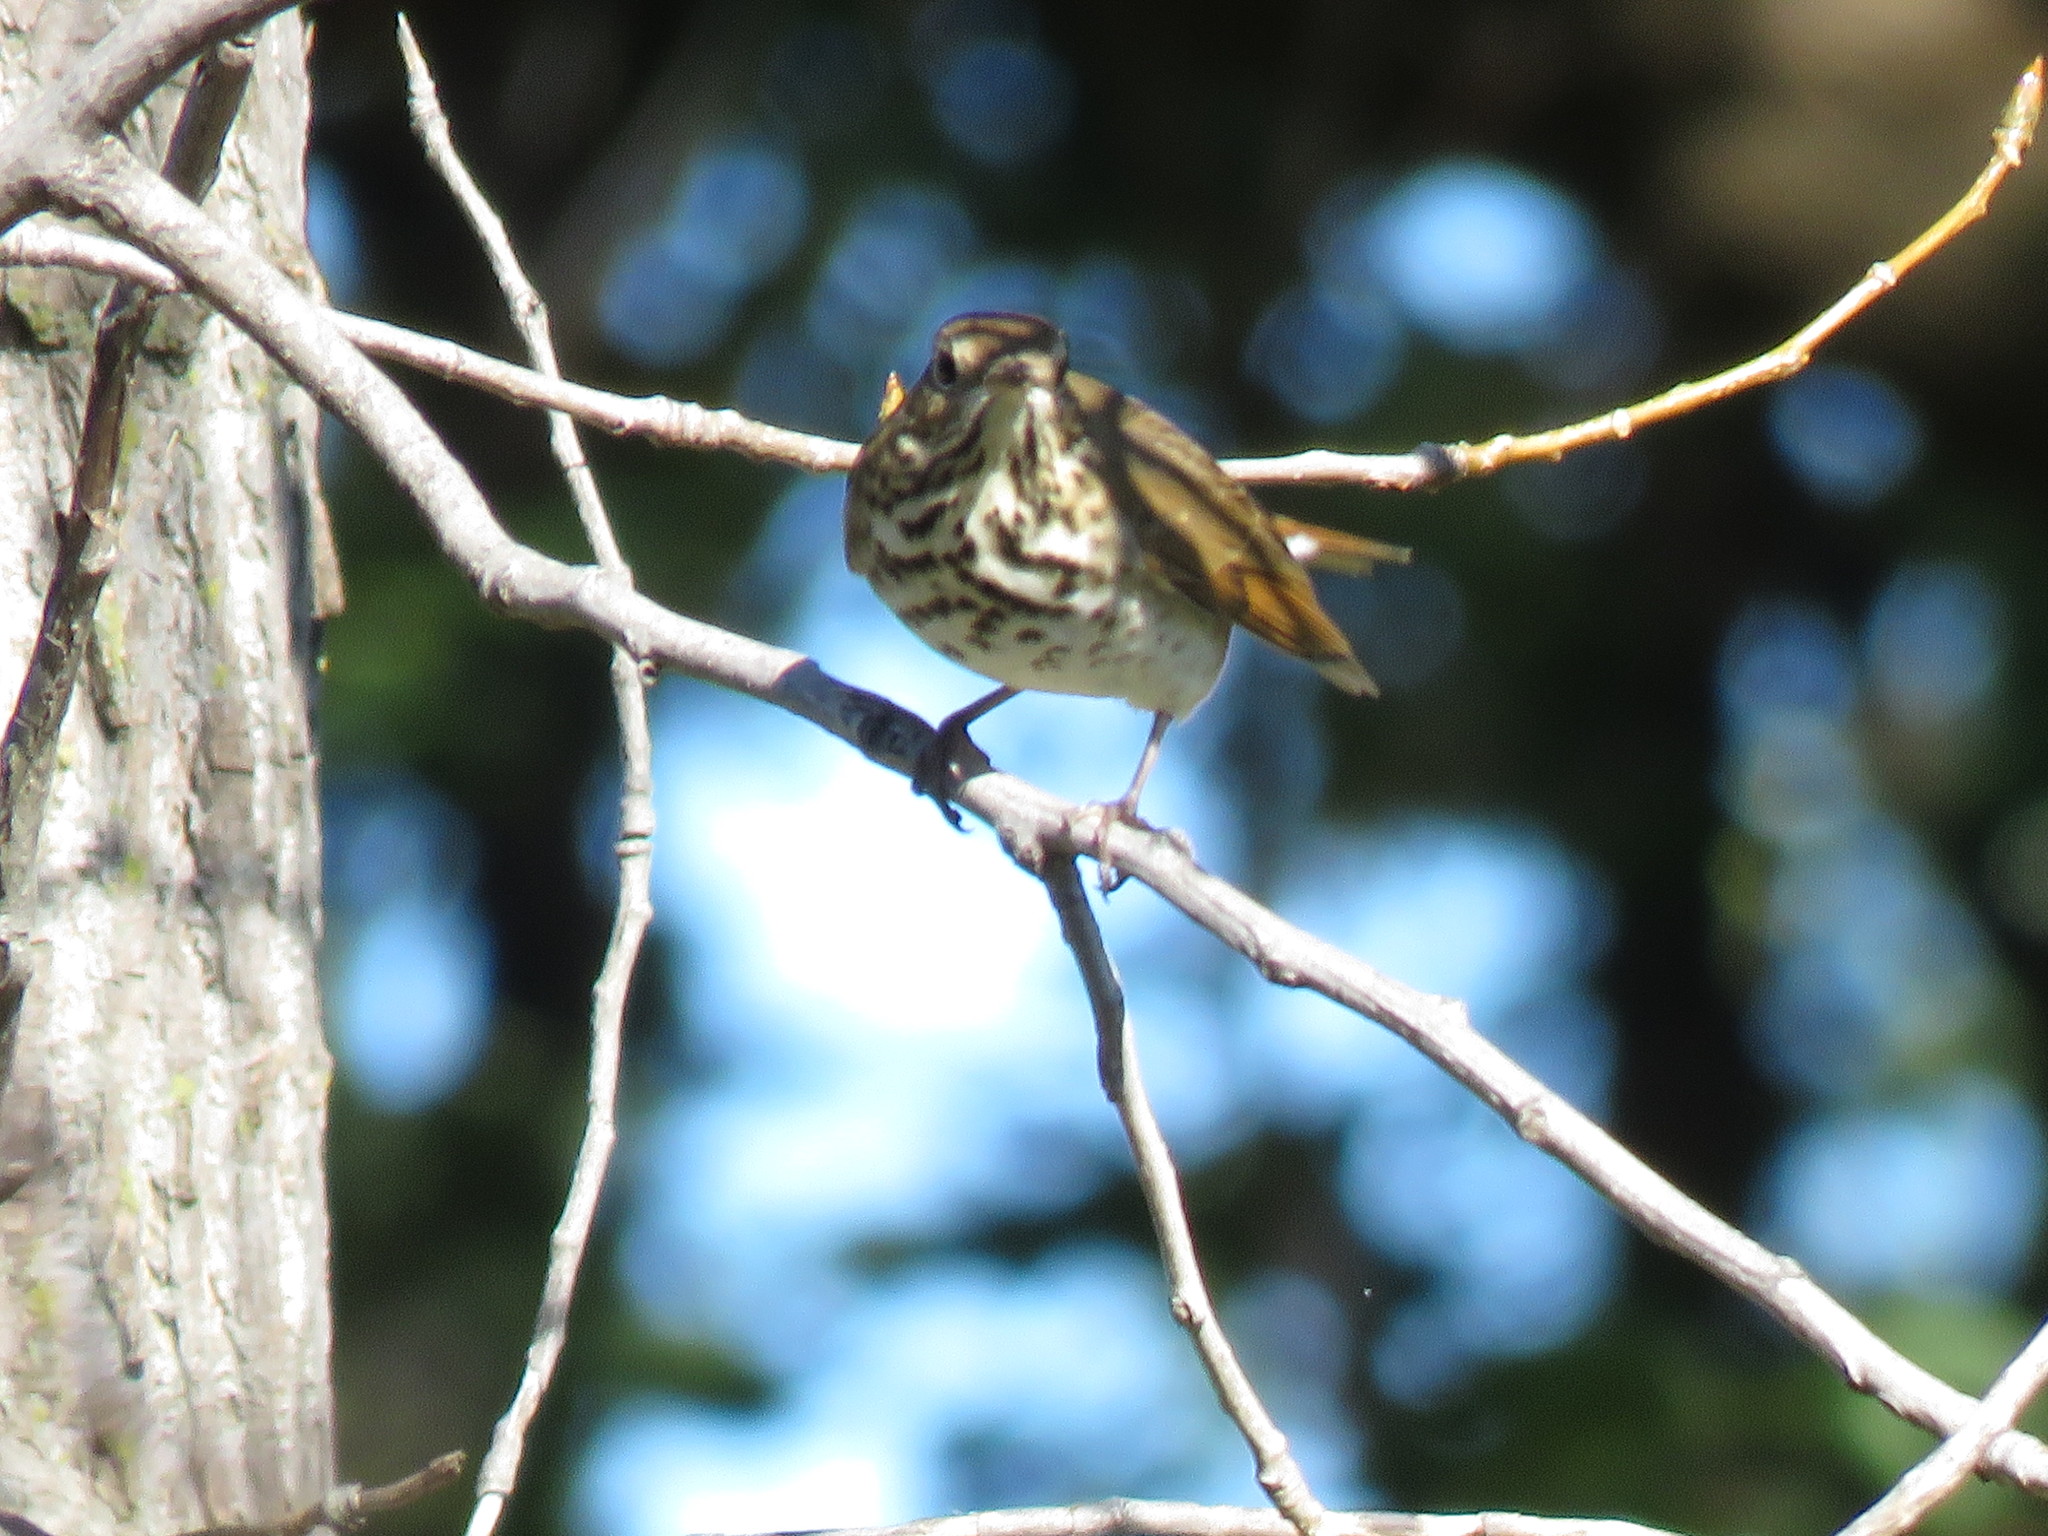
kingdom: Animalia
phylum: Chordata
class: Aves
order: Passeriformes
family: Turdidae
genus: Catharus
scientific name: Catharus guttatus
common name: Hermit thrush
